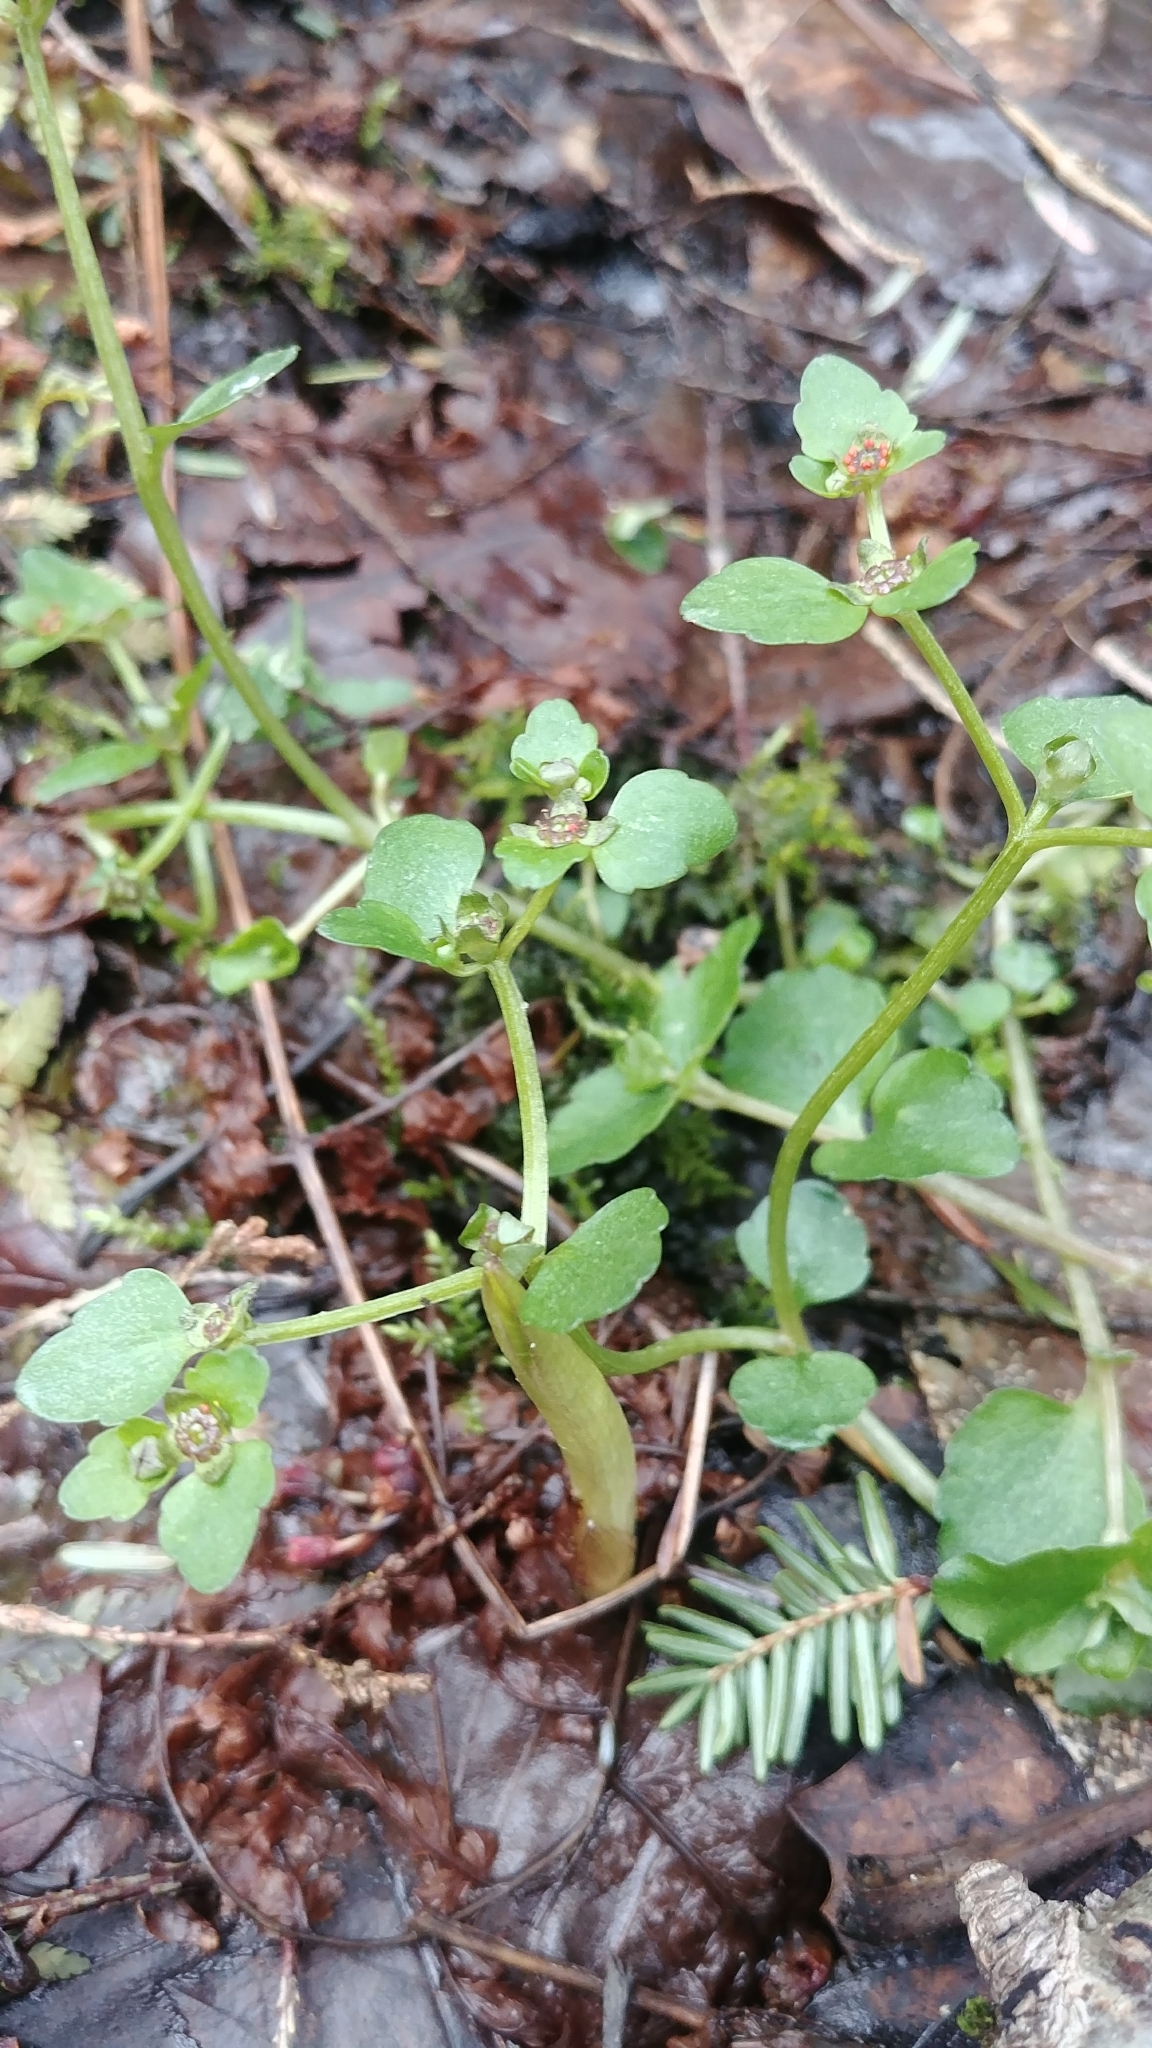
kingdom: Plantae
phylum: Tracheophyta
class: Magnoliopsida
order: Saxifragales
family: Saxifragaceae
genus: Chrysosplenium
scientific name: Chrysosplenium americanum
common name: American golden-saxifrage
